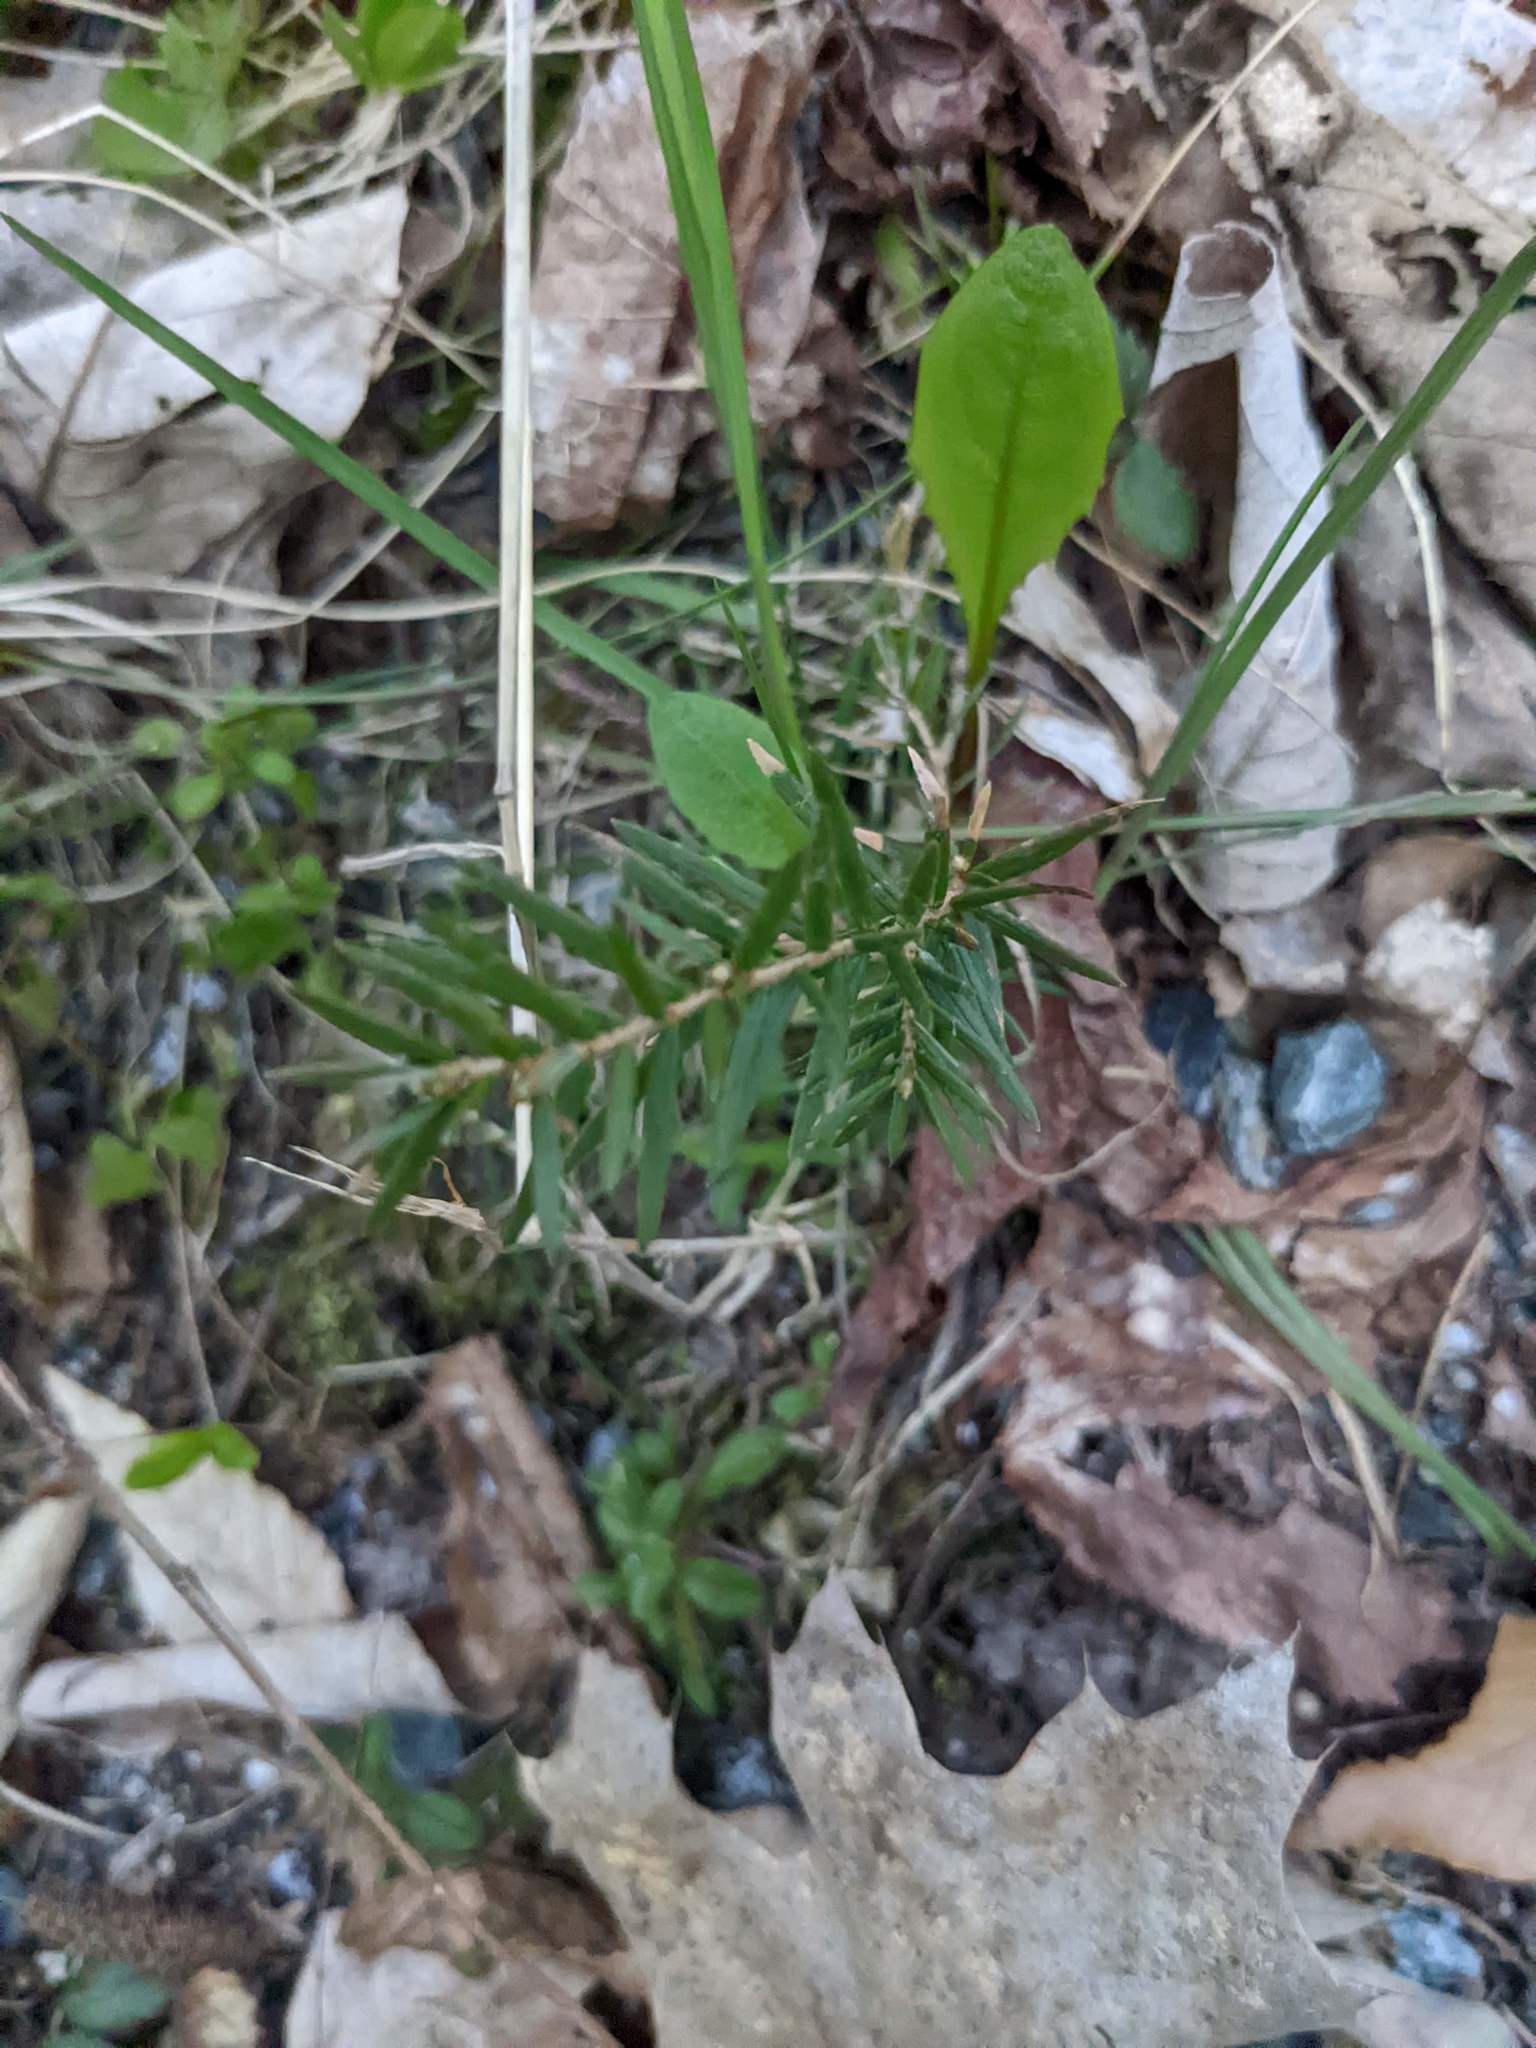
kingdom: Plantae
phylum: Tracheophyta
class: Pinopsida
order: Pinales
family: Pinaceae
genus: Tsuga
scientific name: Tsuga canadensis
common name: Eastern hemlock
